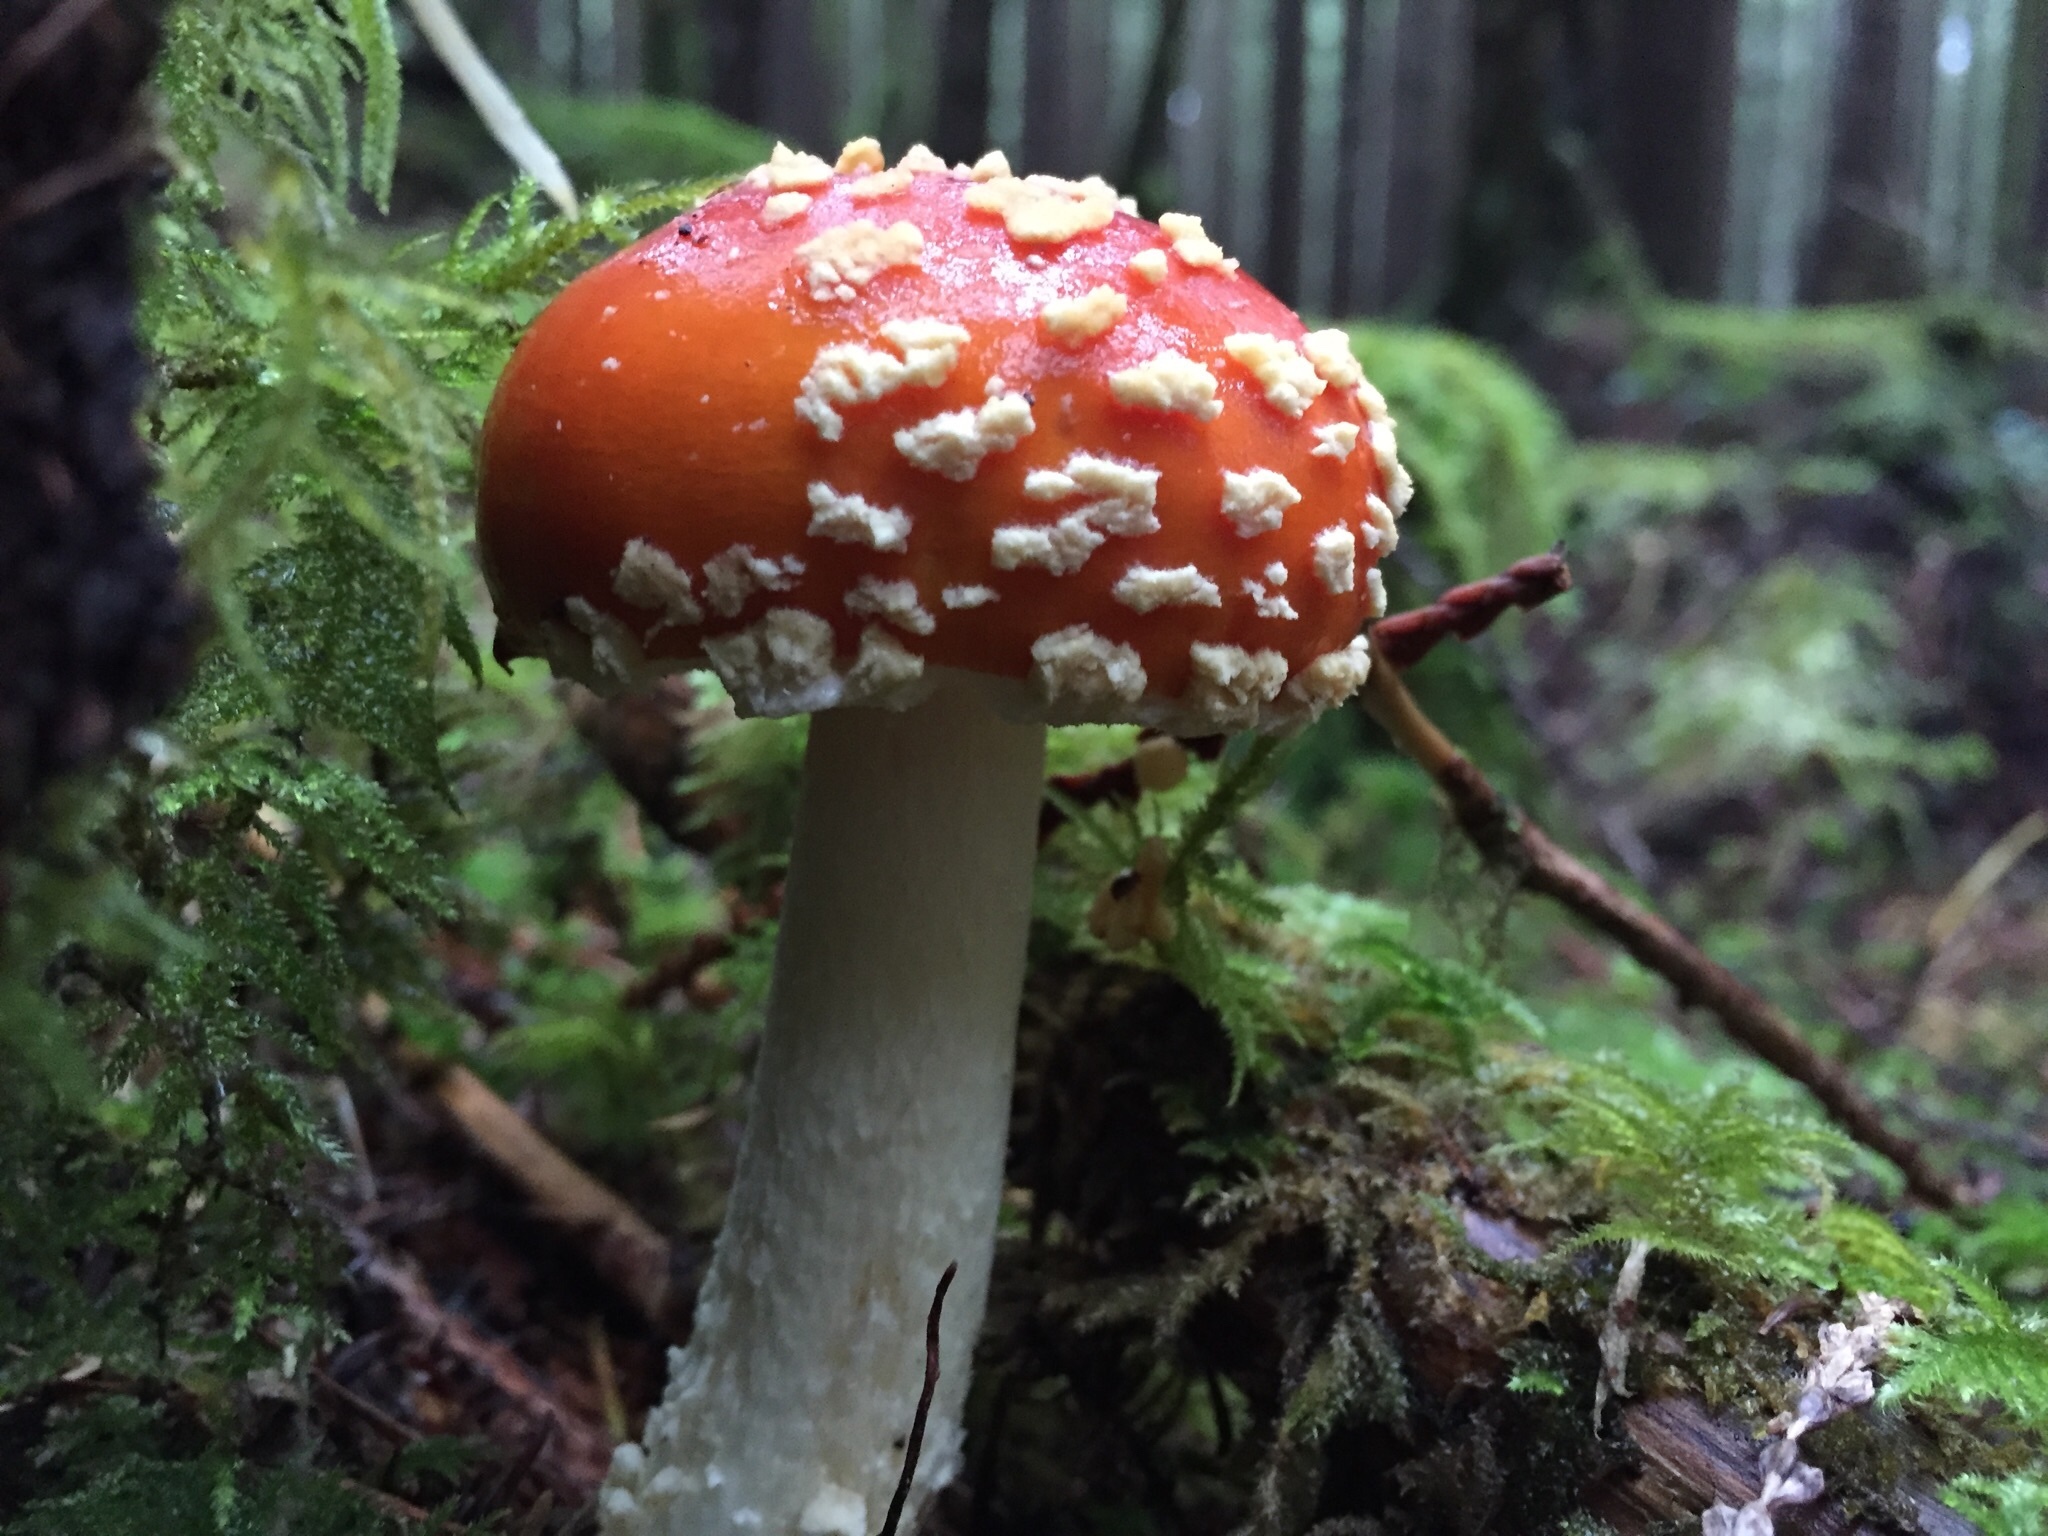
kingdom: Fungi
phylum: Basidiomycota
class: Agaricomycetes
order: Agaricales
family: Amanitaceae
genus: Amanita
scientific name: Amanita muscaria
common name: Fly agaric
